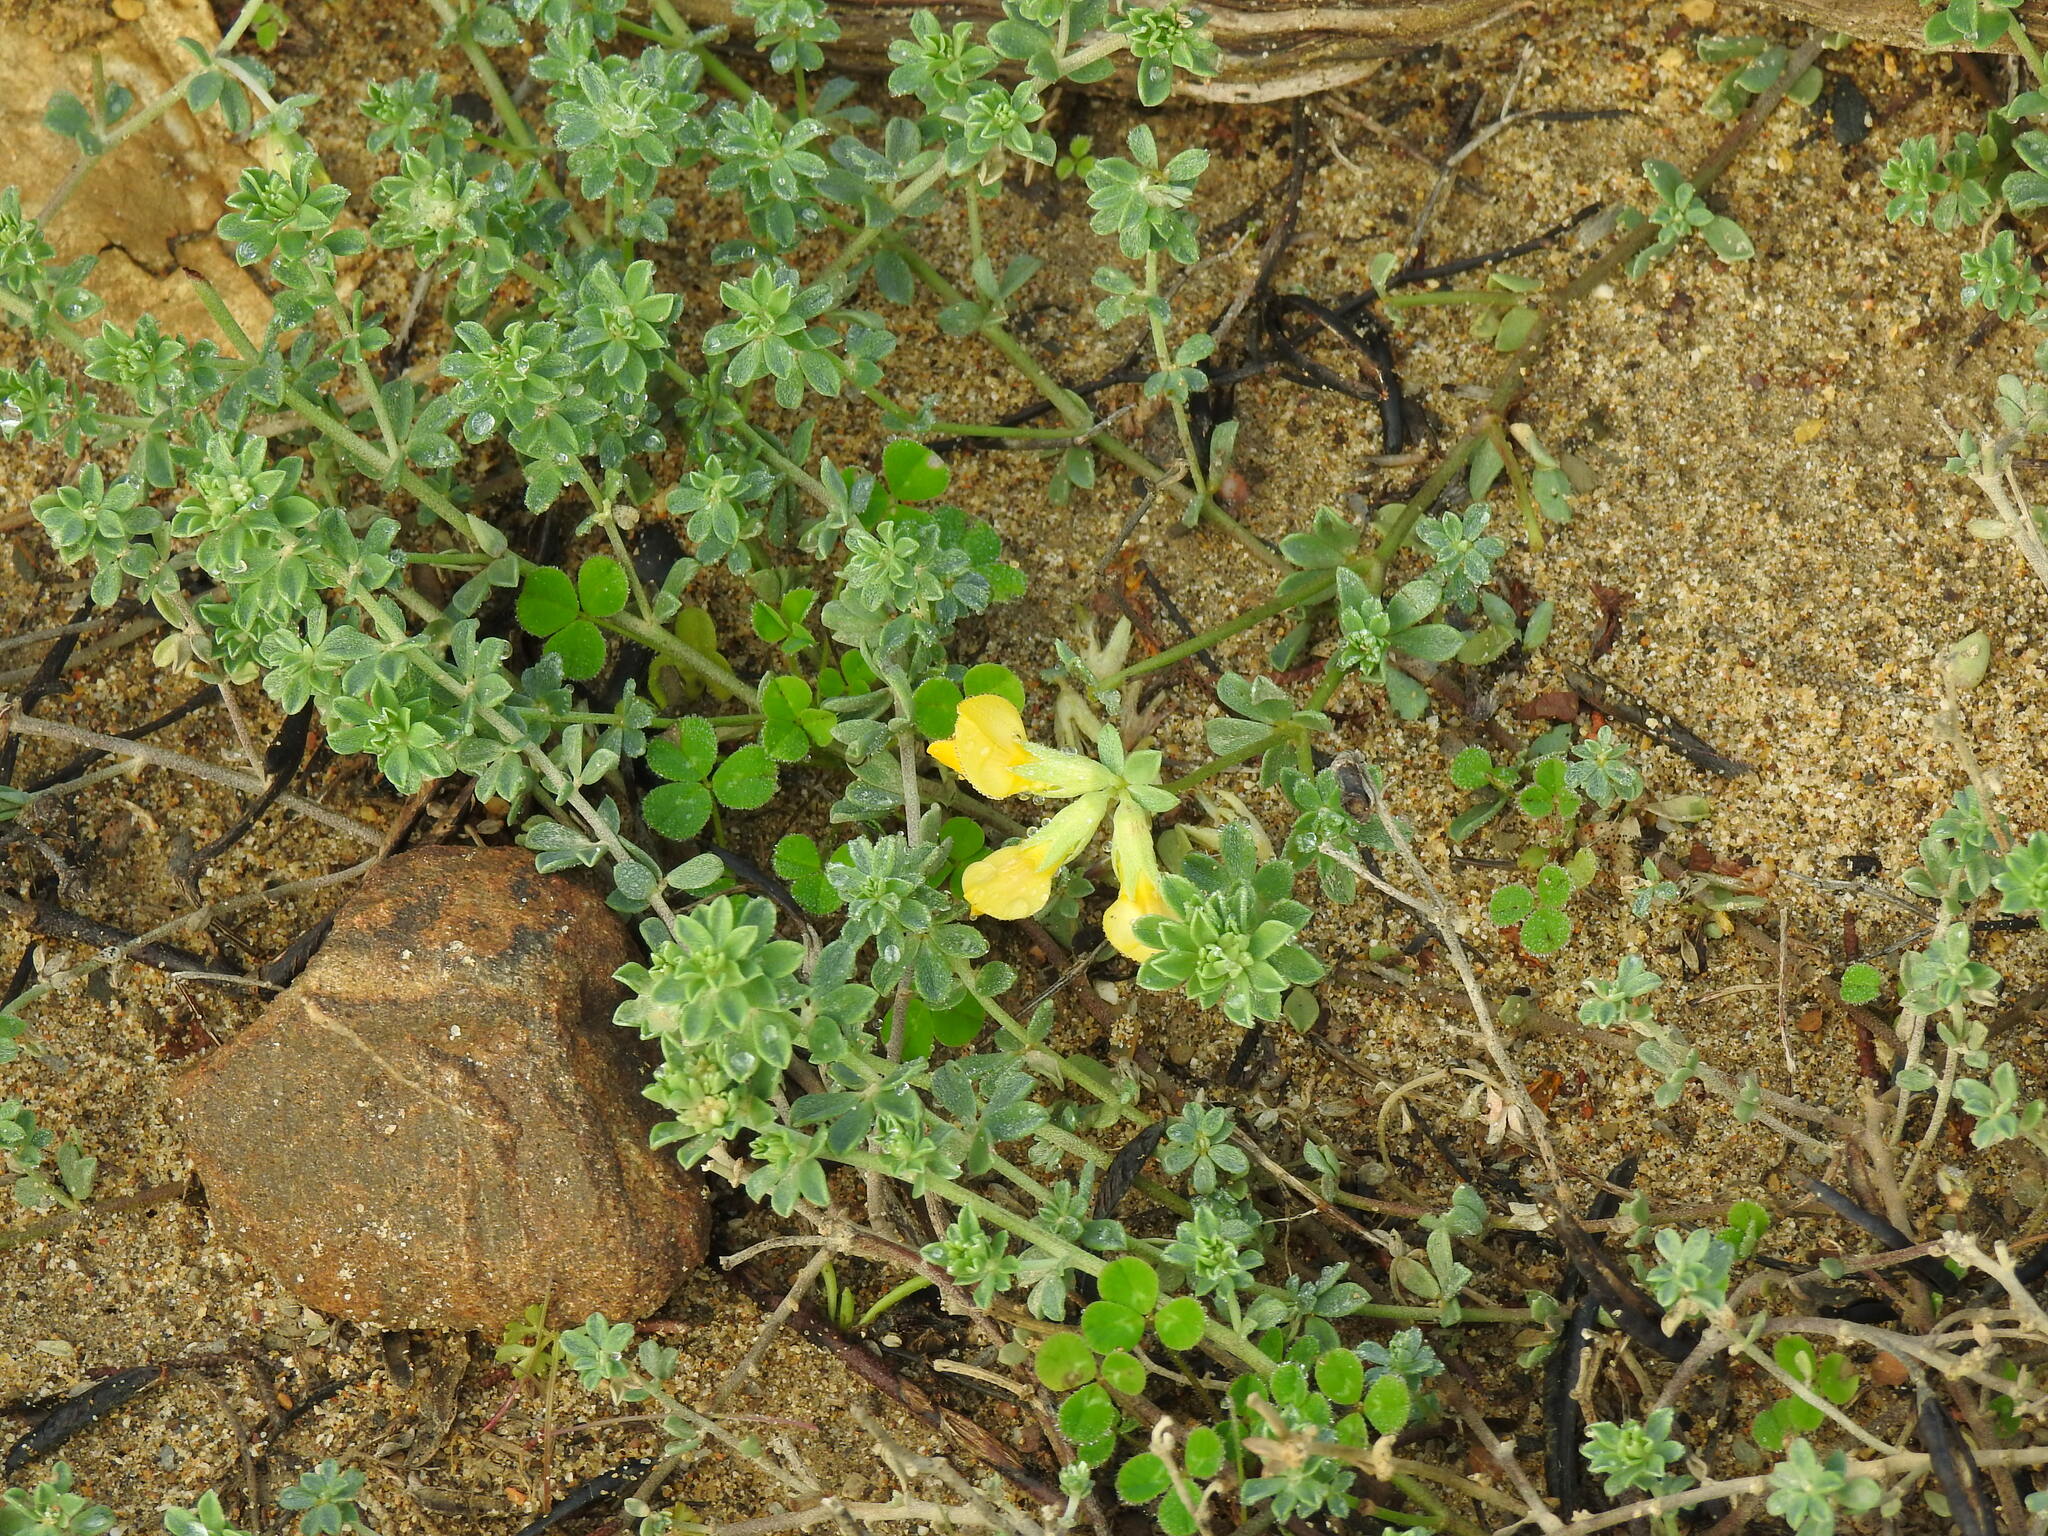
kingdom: Plantae
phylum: Tracheophyta
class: Magnoliopsida
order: Fabales
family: Fabaceae
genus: Lotus
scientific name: Lotus creticus
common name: Cretan bird's-foot trefoil
